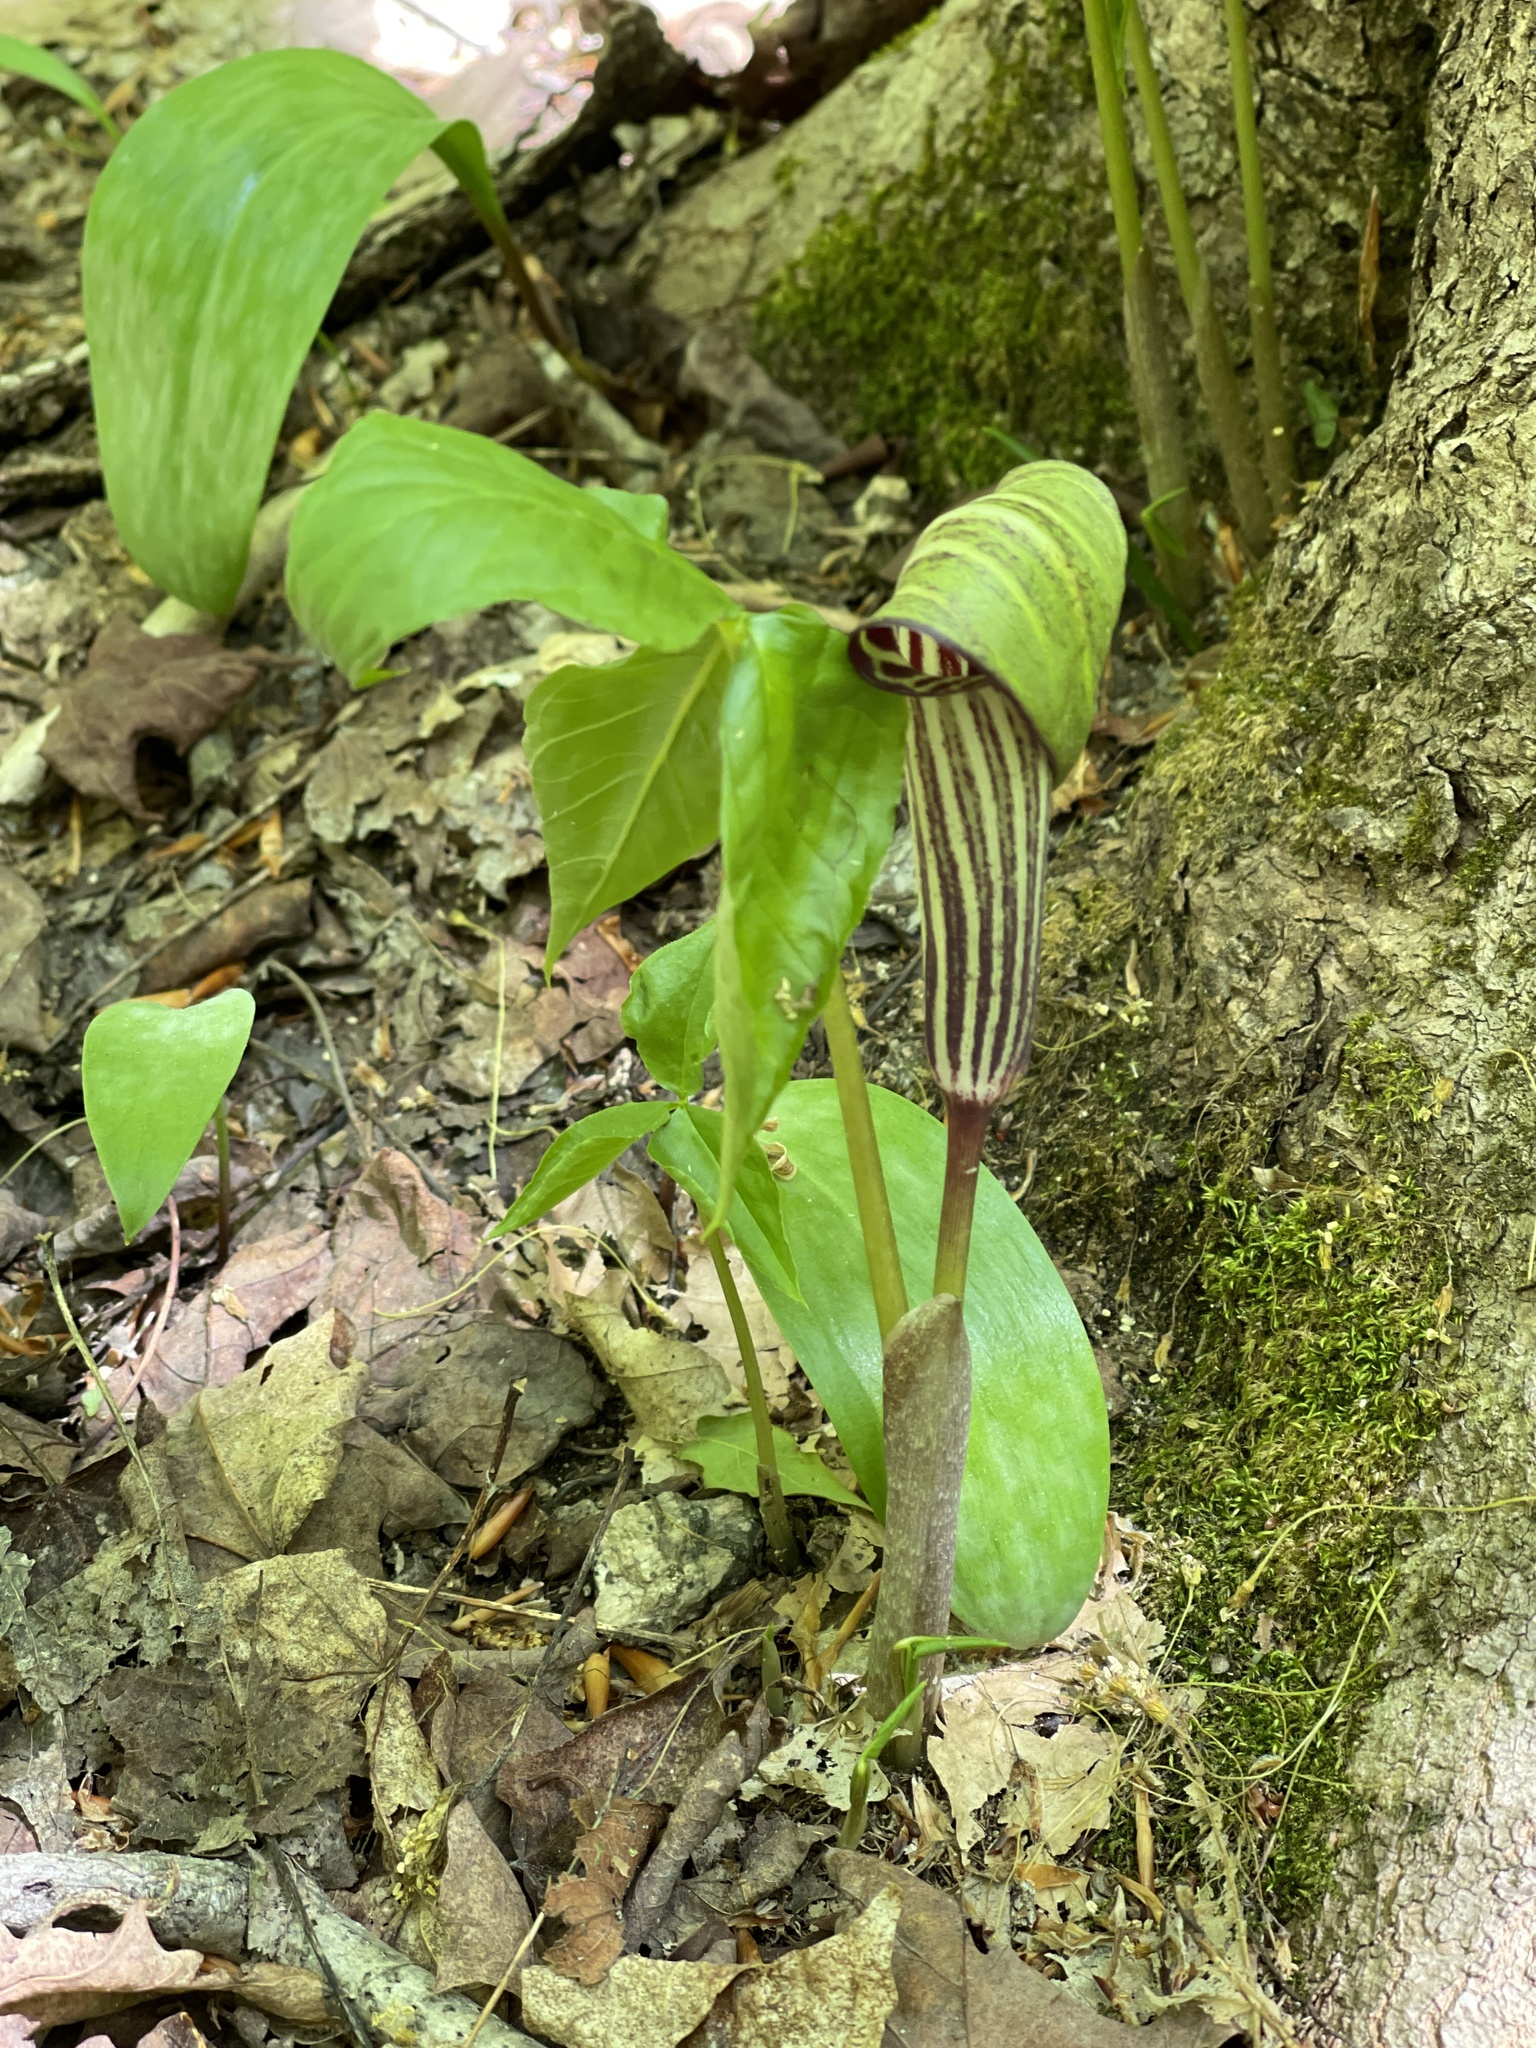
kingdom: Plantae
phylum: Tracheophyta
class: Liliopsida
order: Alismatales
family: Araceae
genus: Arisaema
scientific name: Arisaema triphyllum
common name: Jack-in-the-pulpit
